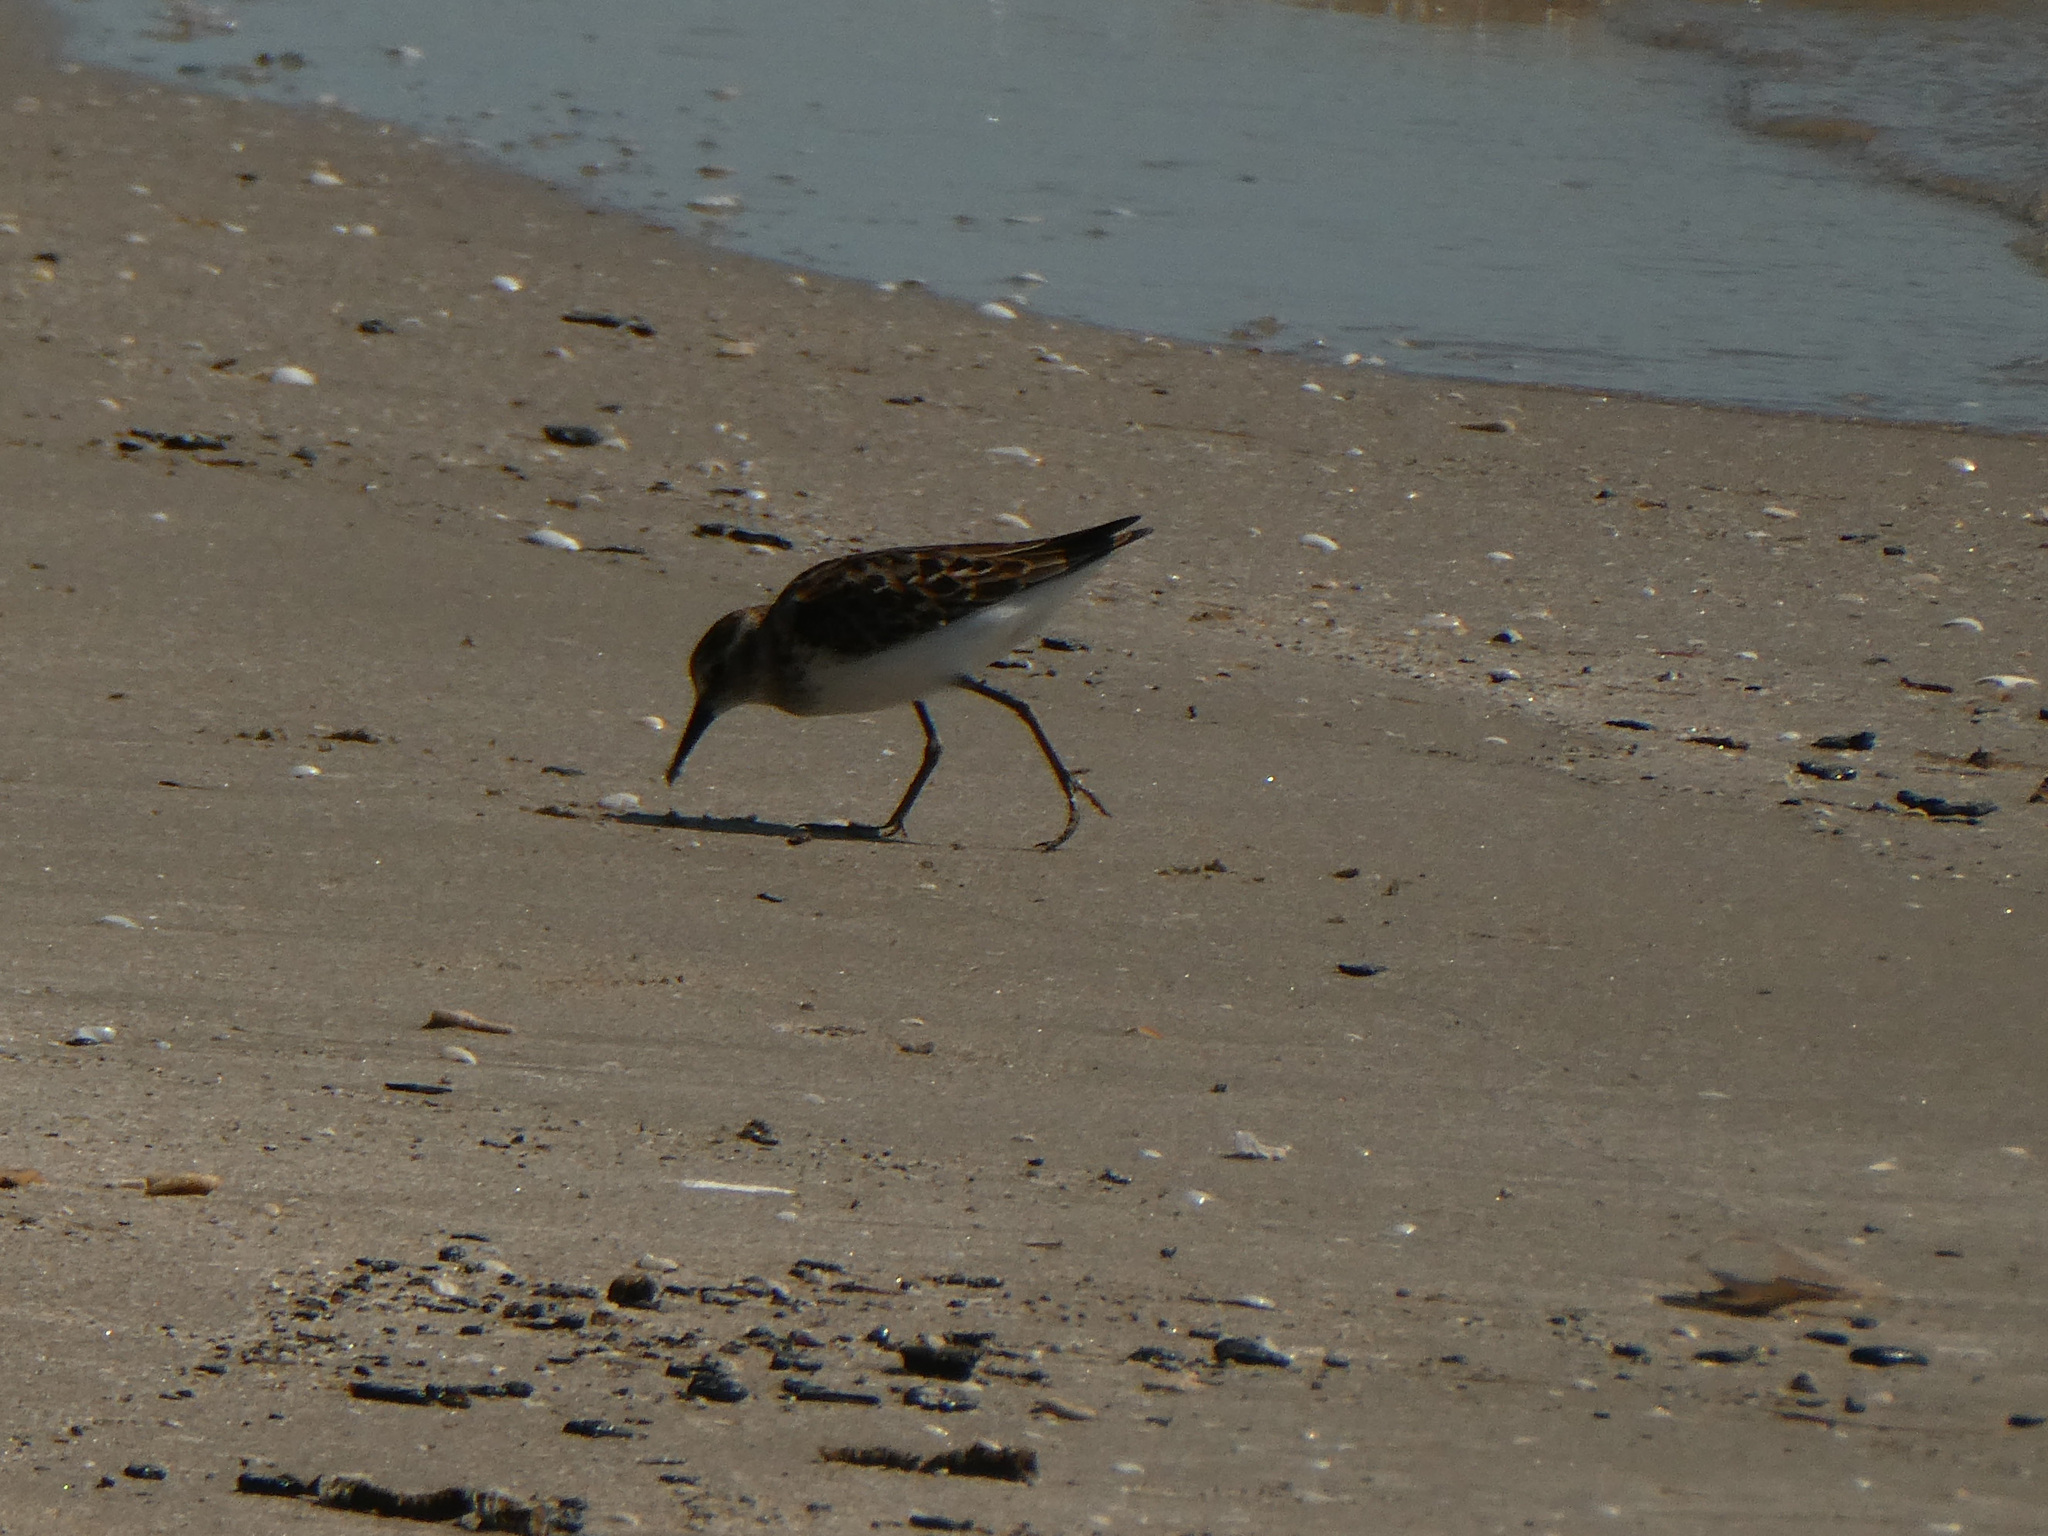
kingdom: Animalia
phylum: Chordata
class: Aves
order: Charadriiformes
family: Scolopacidae
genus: Calidris
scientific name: Calidris minutilla
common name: Least sandpiper
